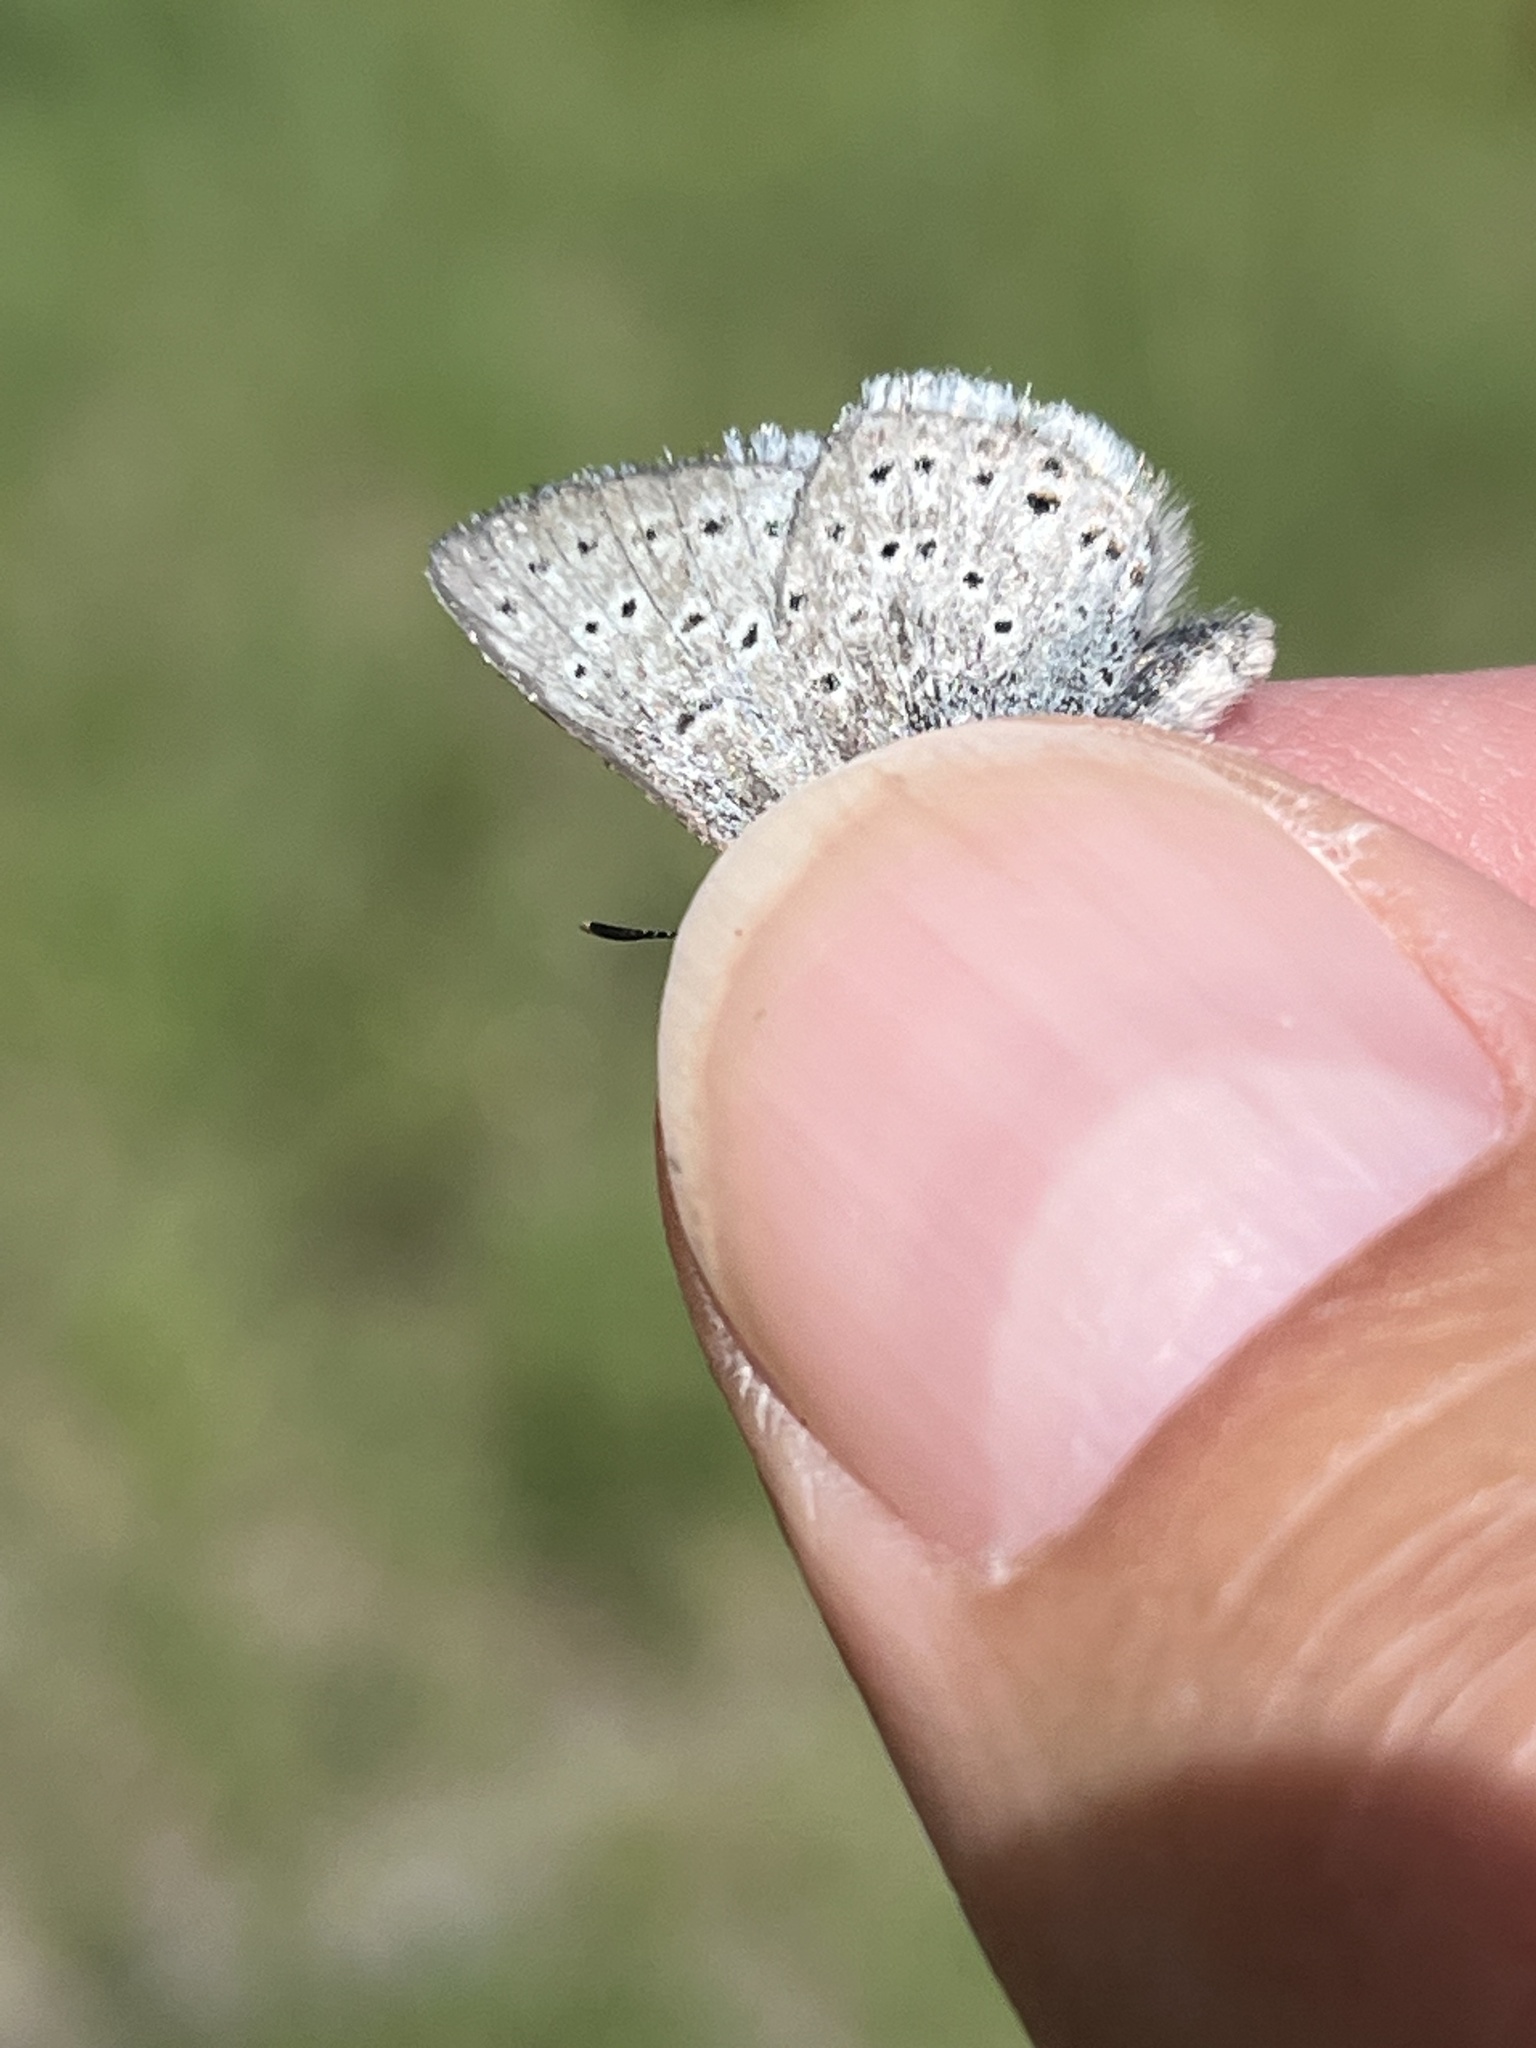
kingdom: Animalia
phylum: Arthropoda
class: Insecta
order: Lepidoptera
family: Lycaenidae
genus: Icaricia
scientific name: Icaricia saepiolus
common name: Greenish blue
